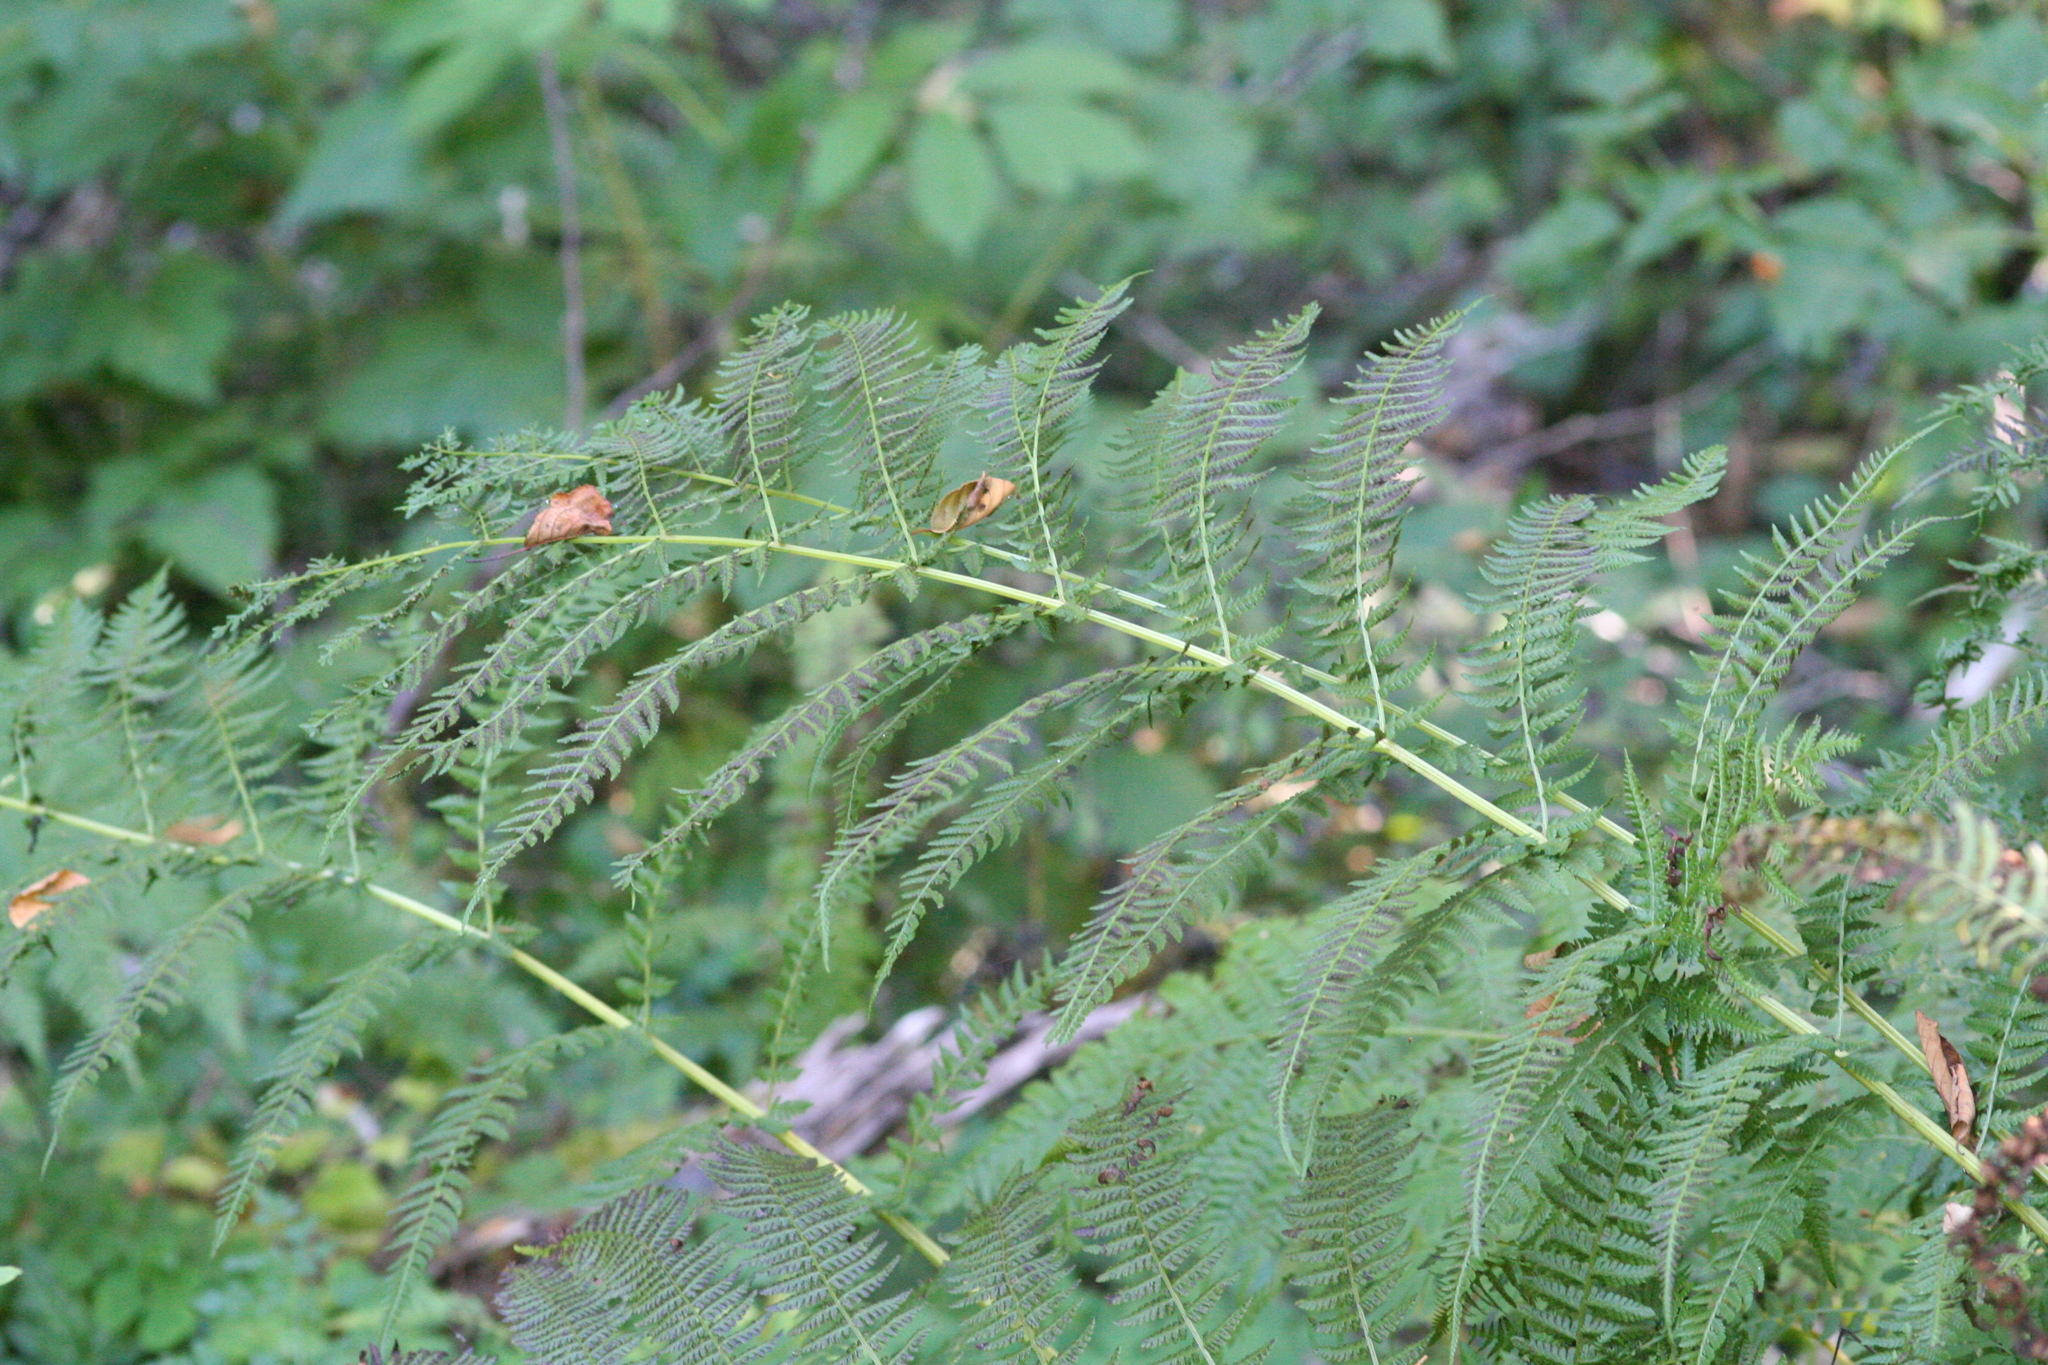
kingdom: Plantae
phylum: Tracheophyta
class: Polypodiopsida
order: Polypodiales
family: Athyriaceae
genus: Athyrium
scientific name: Athyrium cyclosorum
